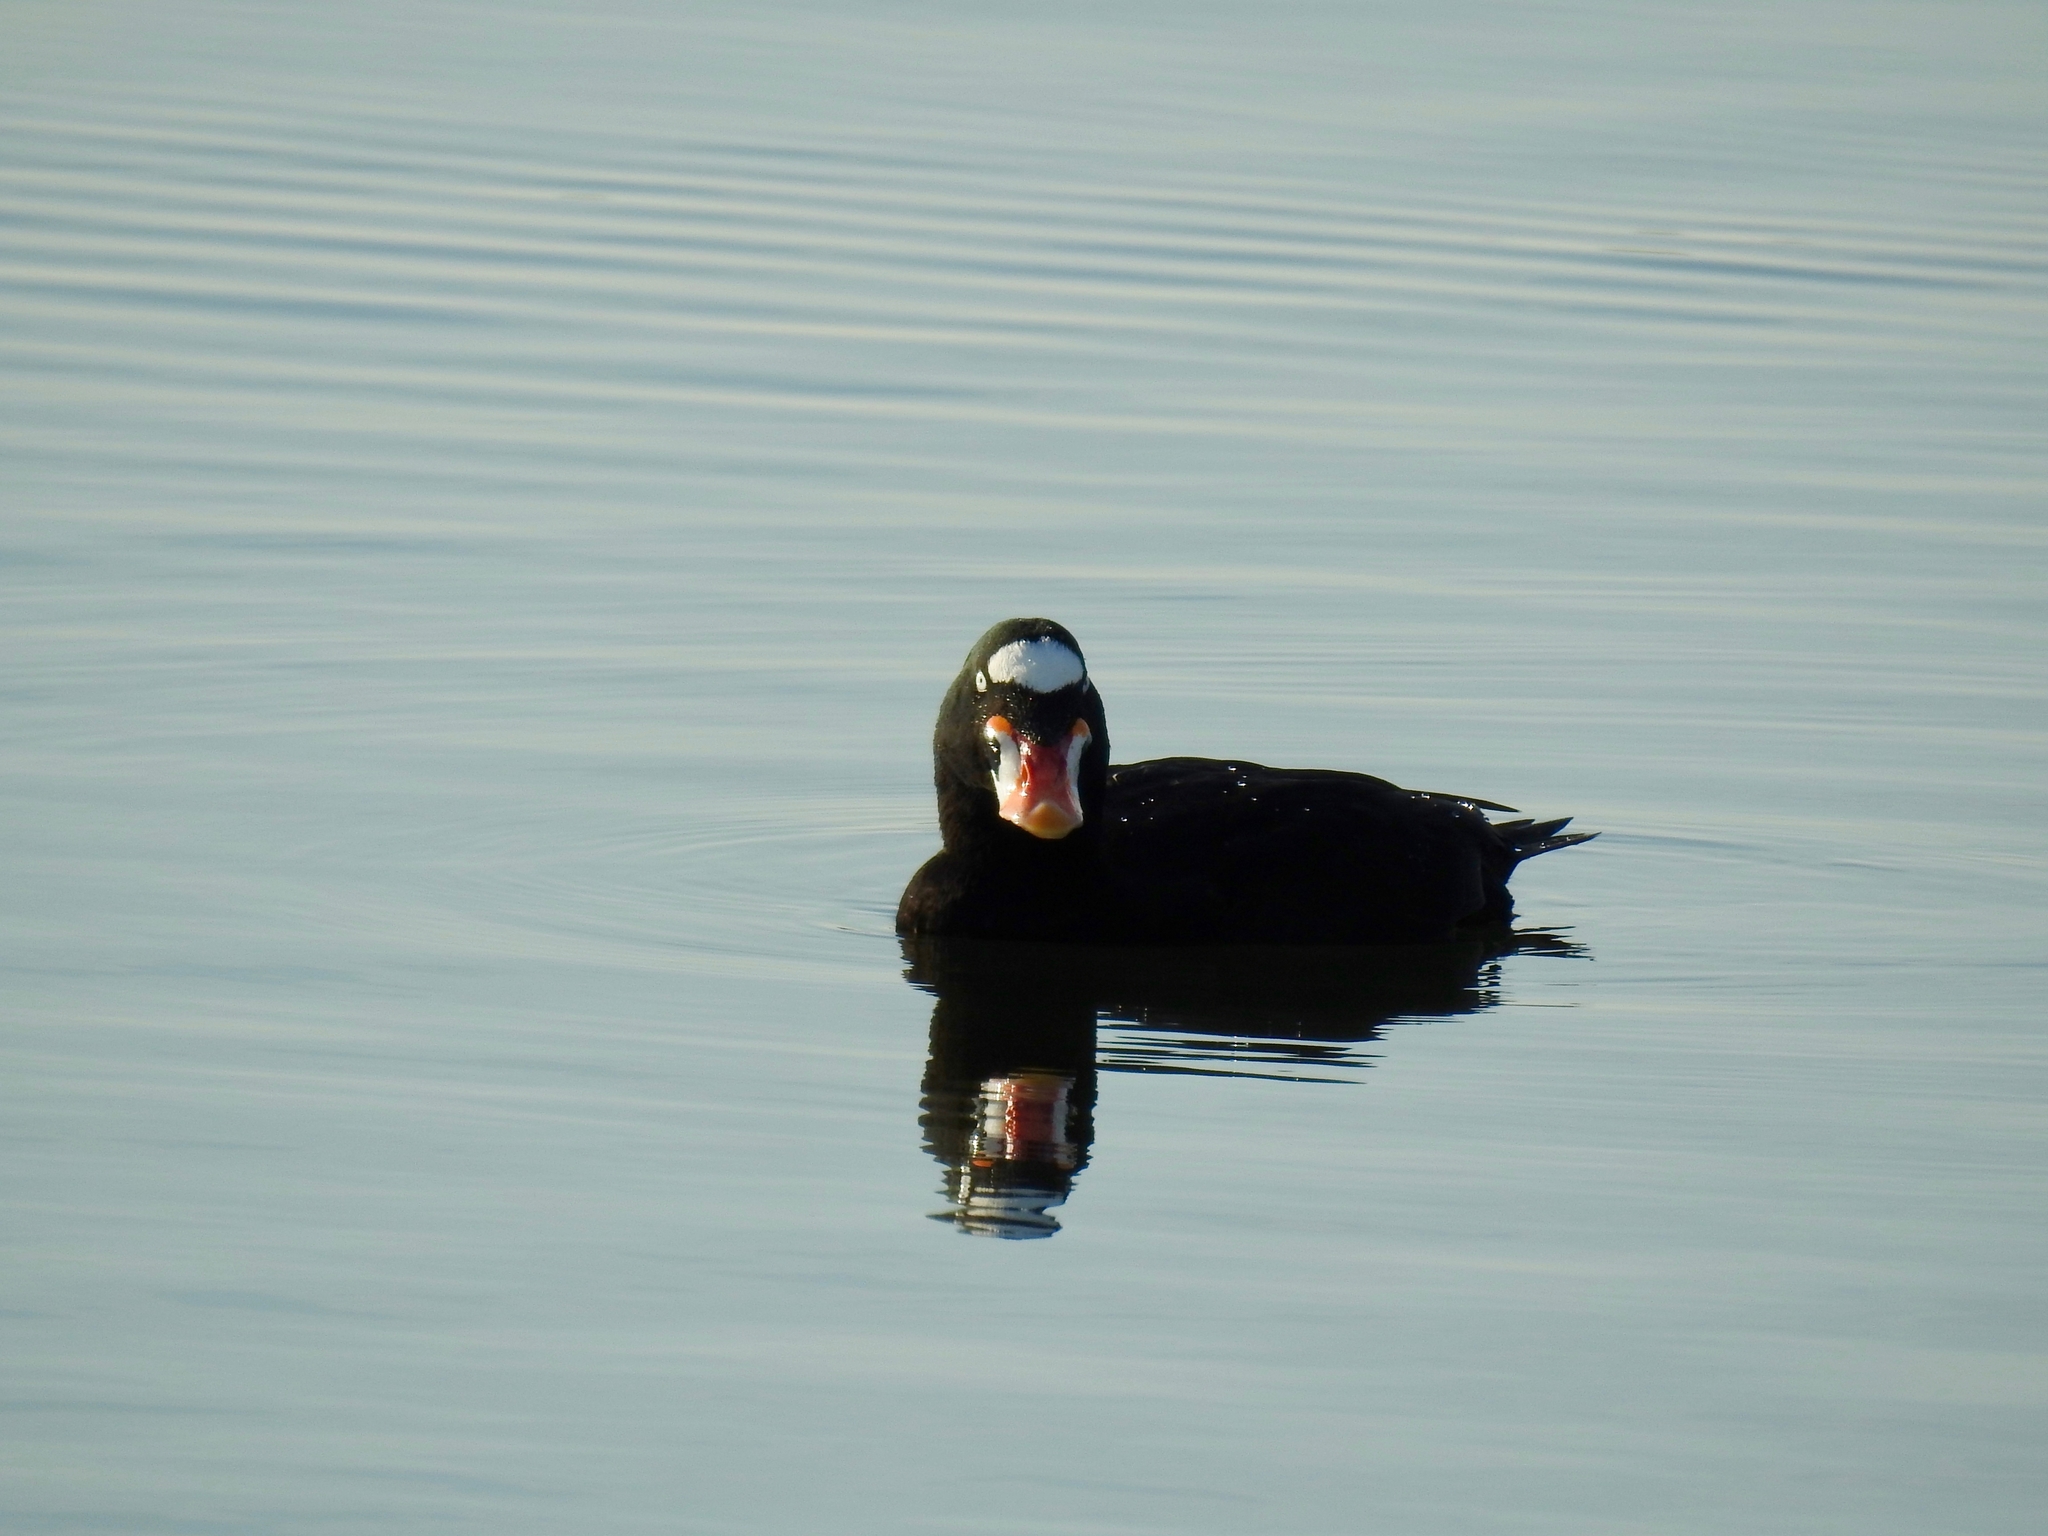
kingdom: Animalia
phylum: Chordata
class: Aves
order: Anseriformes
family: Anatidae
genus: Melanitta
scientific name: Melanitta perspicillata
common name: Surf scoter
